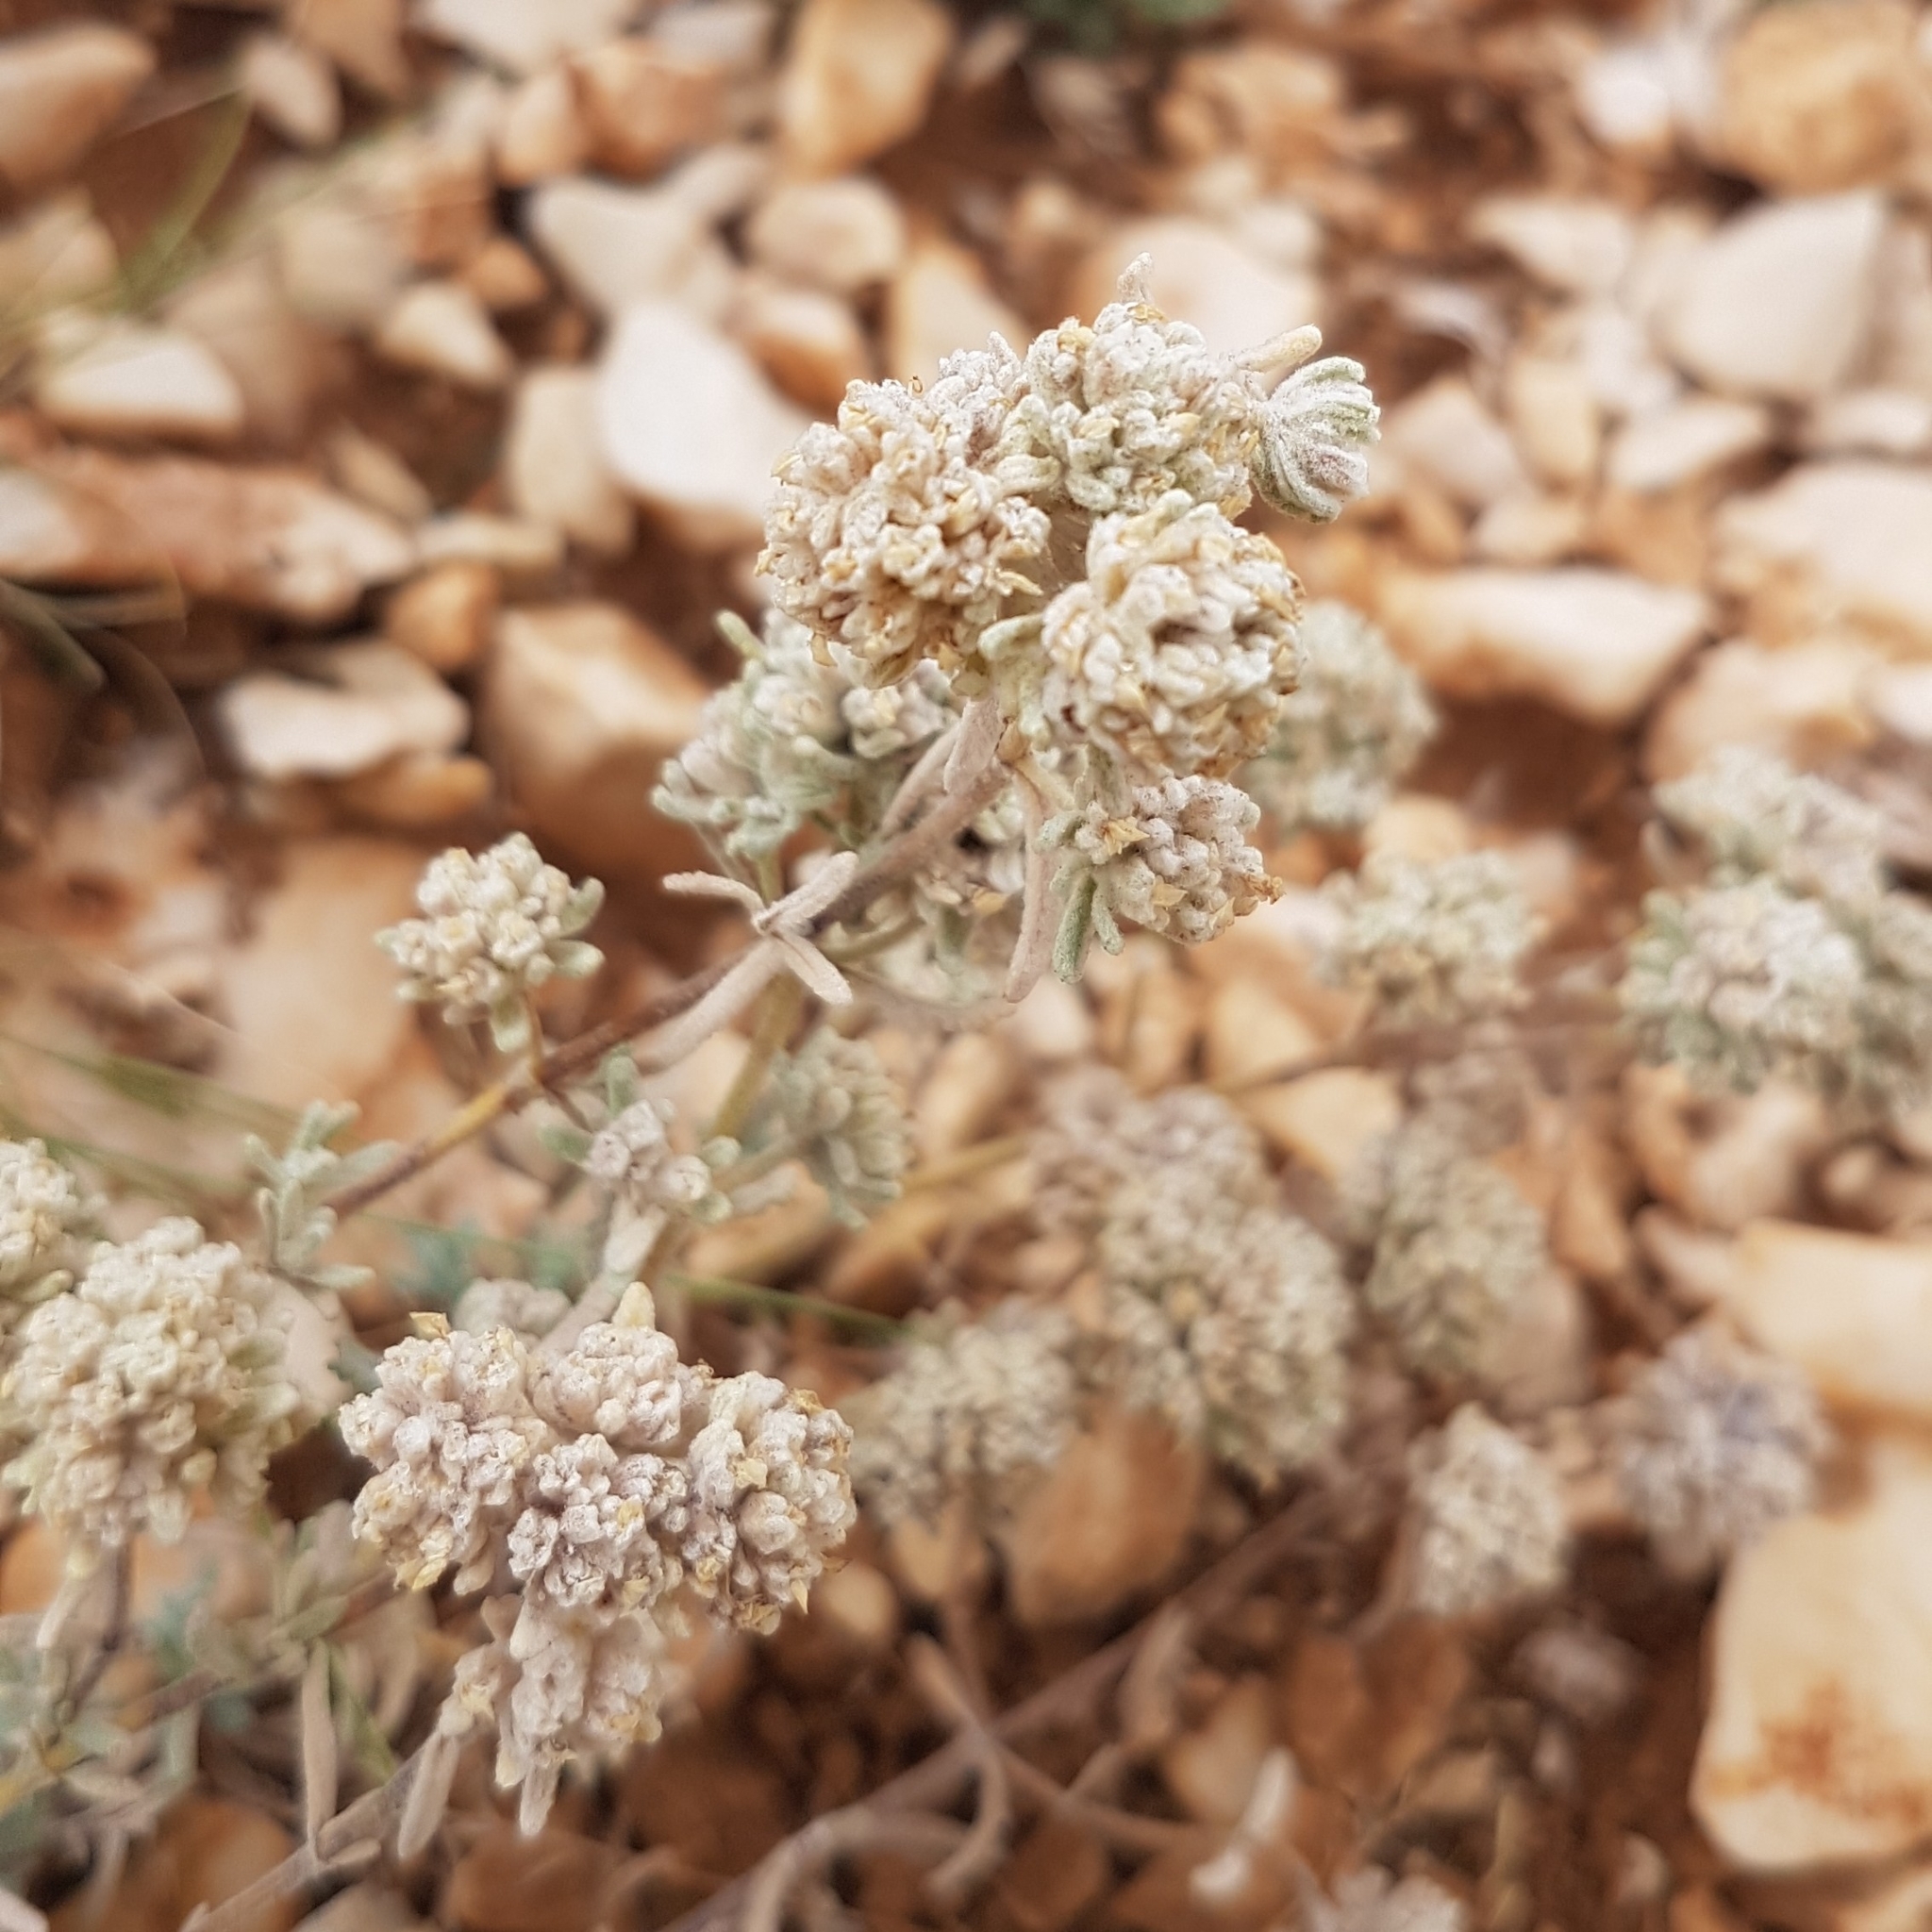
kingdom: Plantae
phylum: Tracheophyta
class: Magnoliopsida
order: Lamiales
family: Lamiaceae
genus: Teucrium
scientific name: Teucrium capitatum
